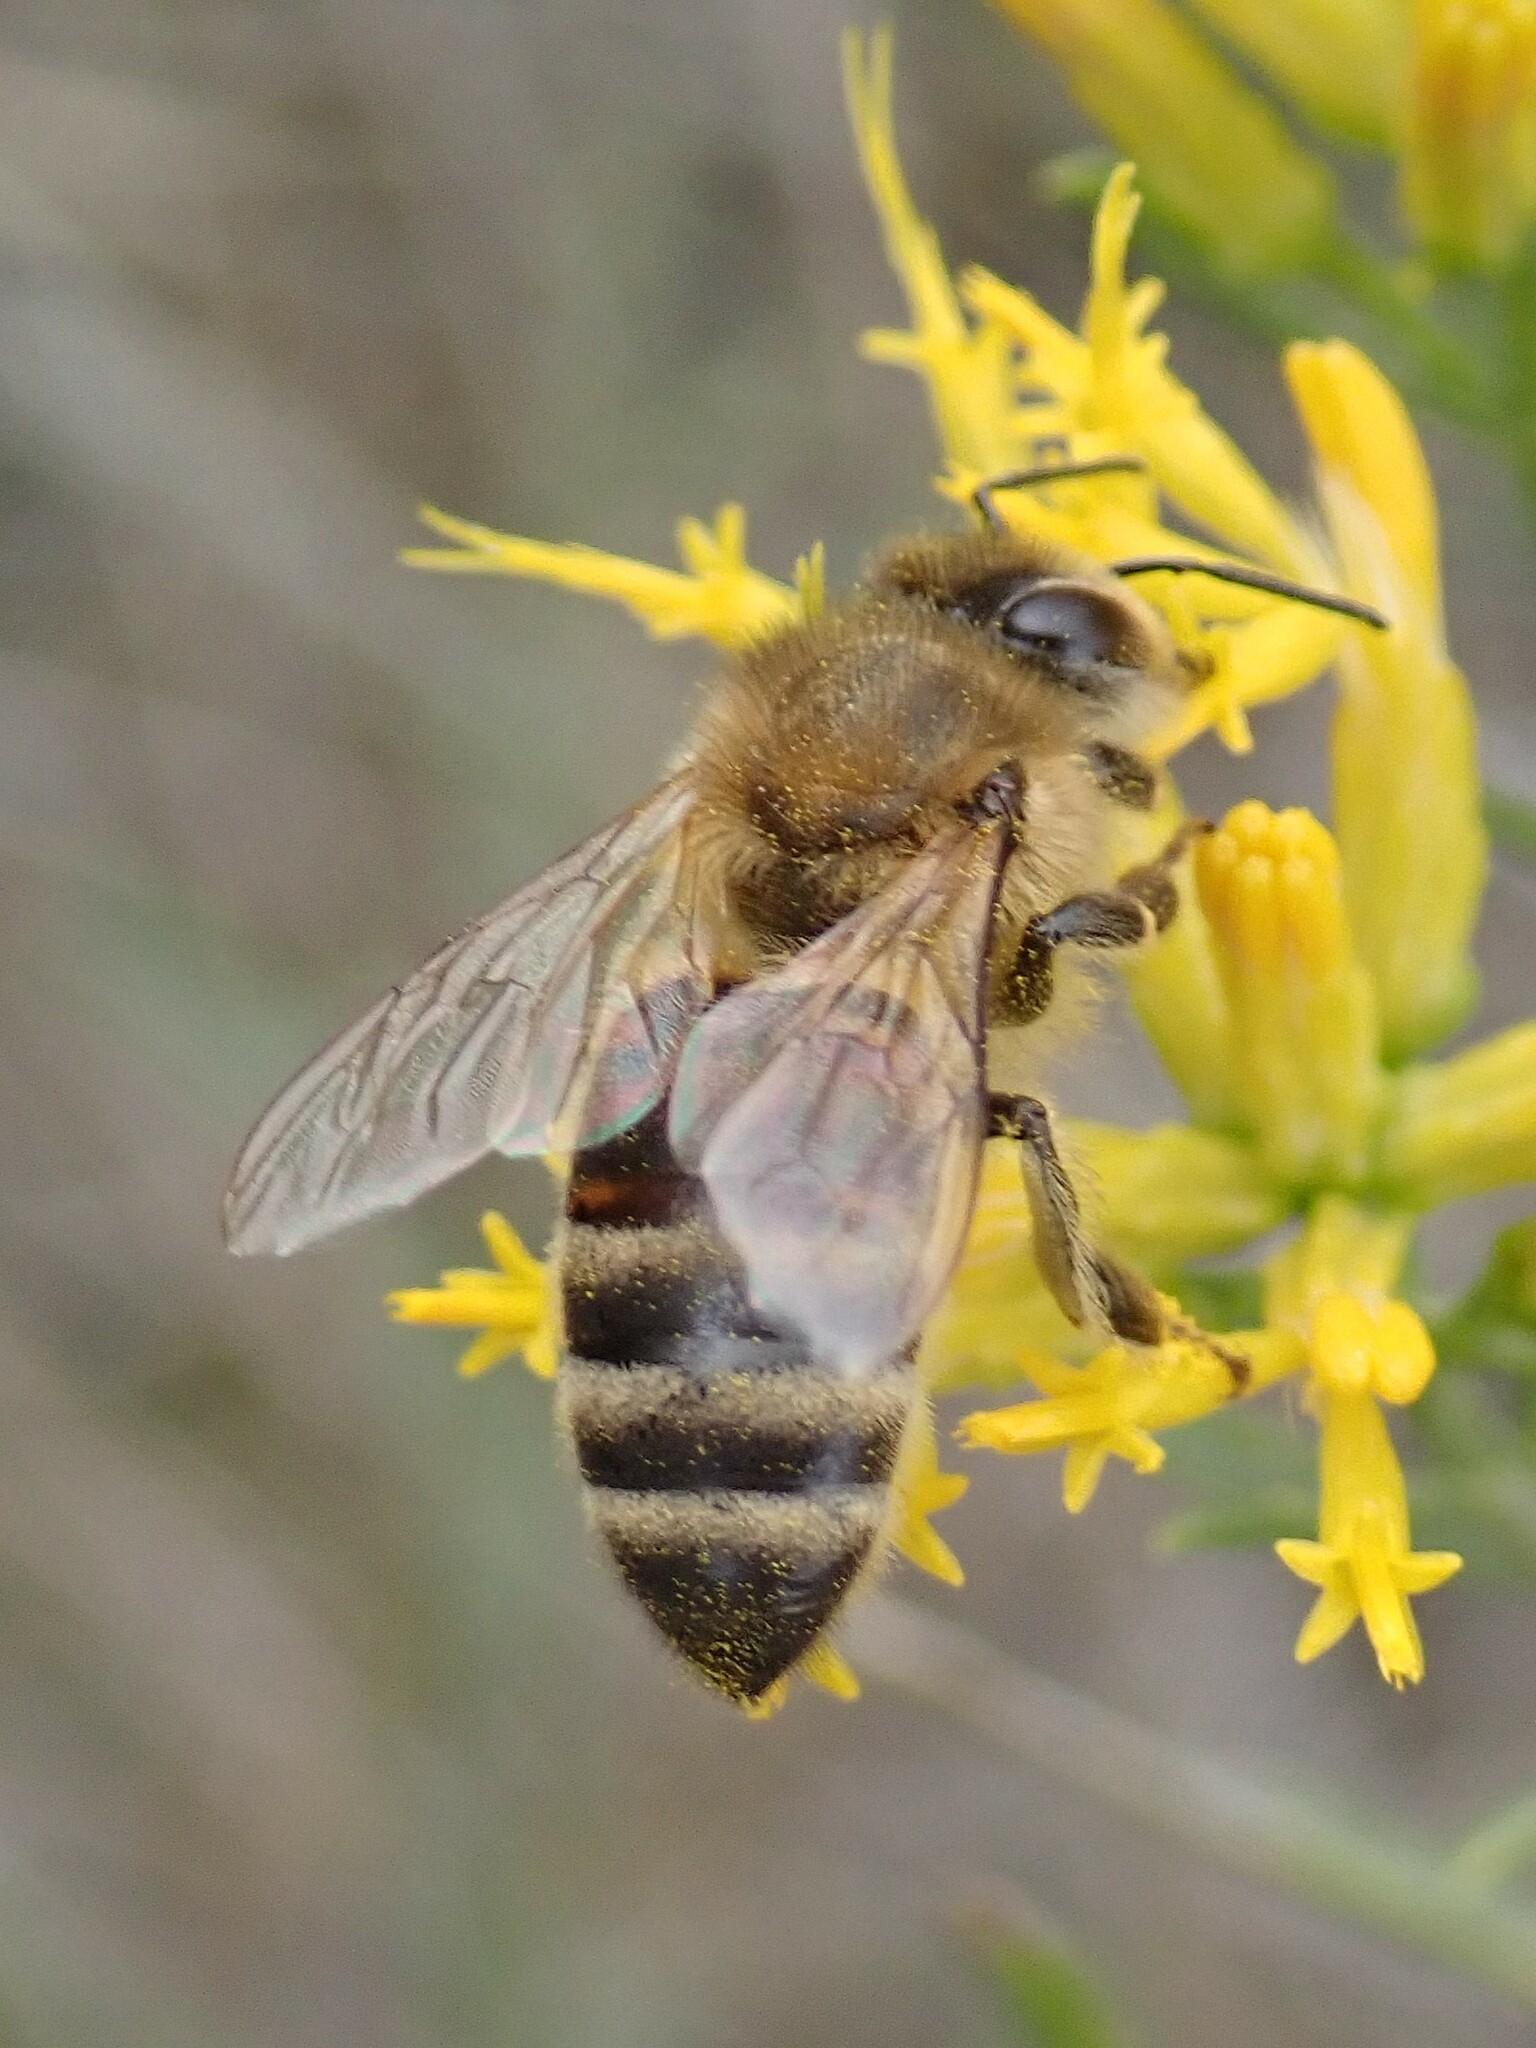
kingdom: Animalia
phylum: Arthropoda
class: Insecta
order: Hymenoptera
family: Apidae
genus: Apis
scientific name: Apis mellifera
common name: Honey bee
